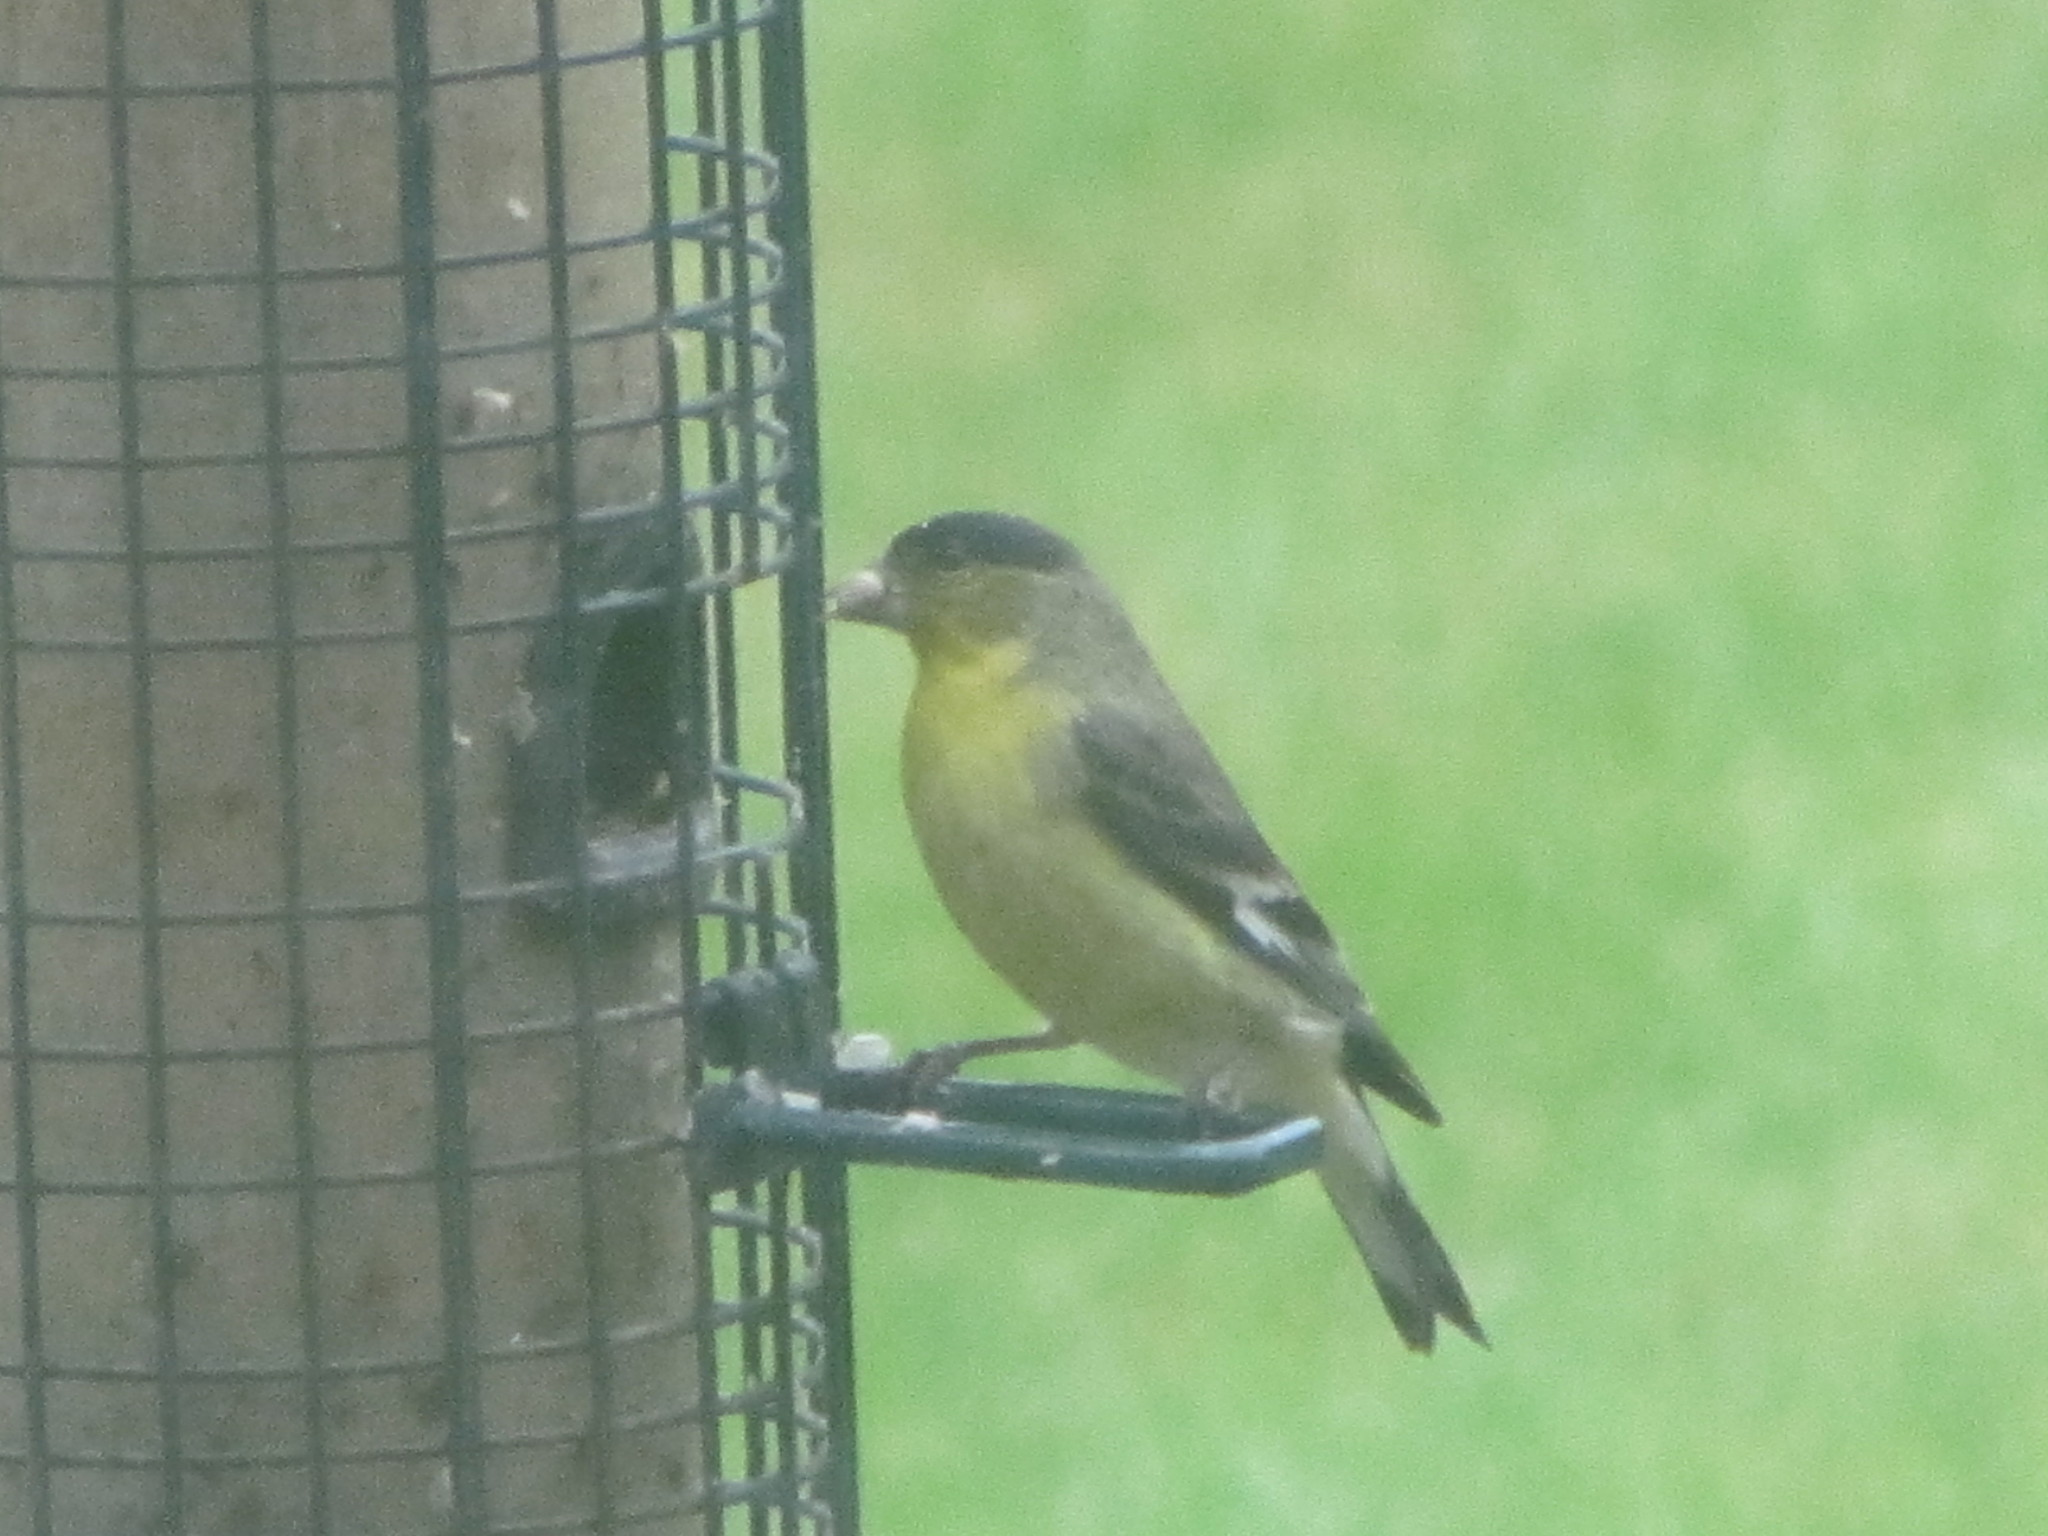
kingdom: Animalia
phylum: Chordata
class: Aves
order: Passeriformes
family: Fringillidae
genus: Spinus
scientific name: Spinus psaltria
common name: Lesser goldfinch
